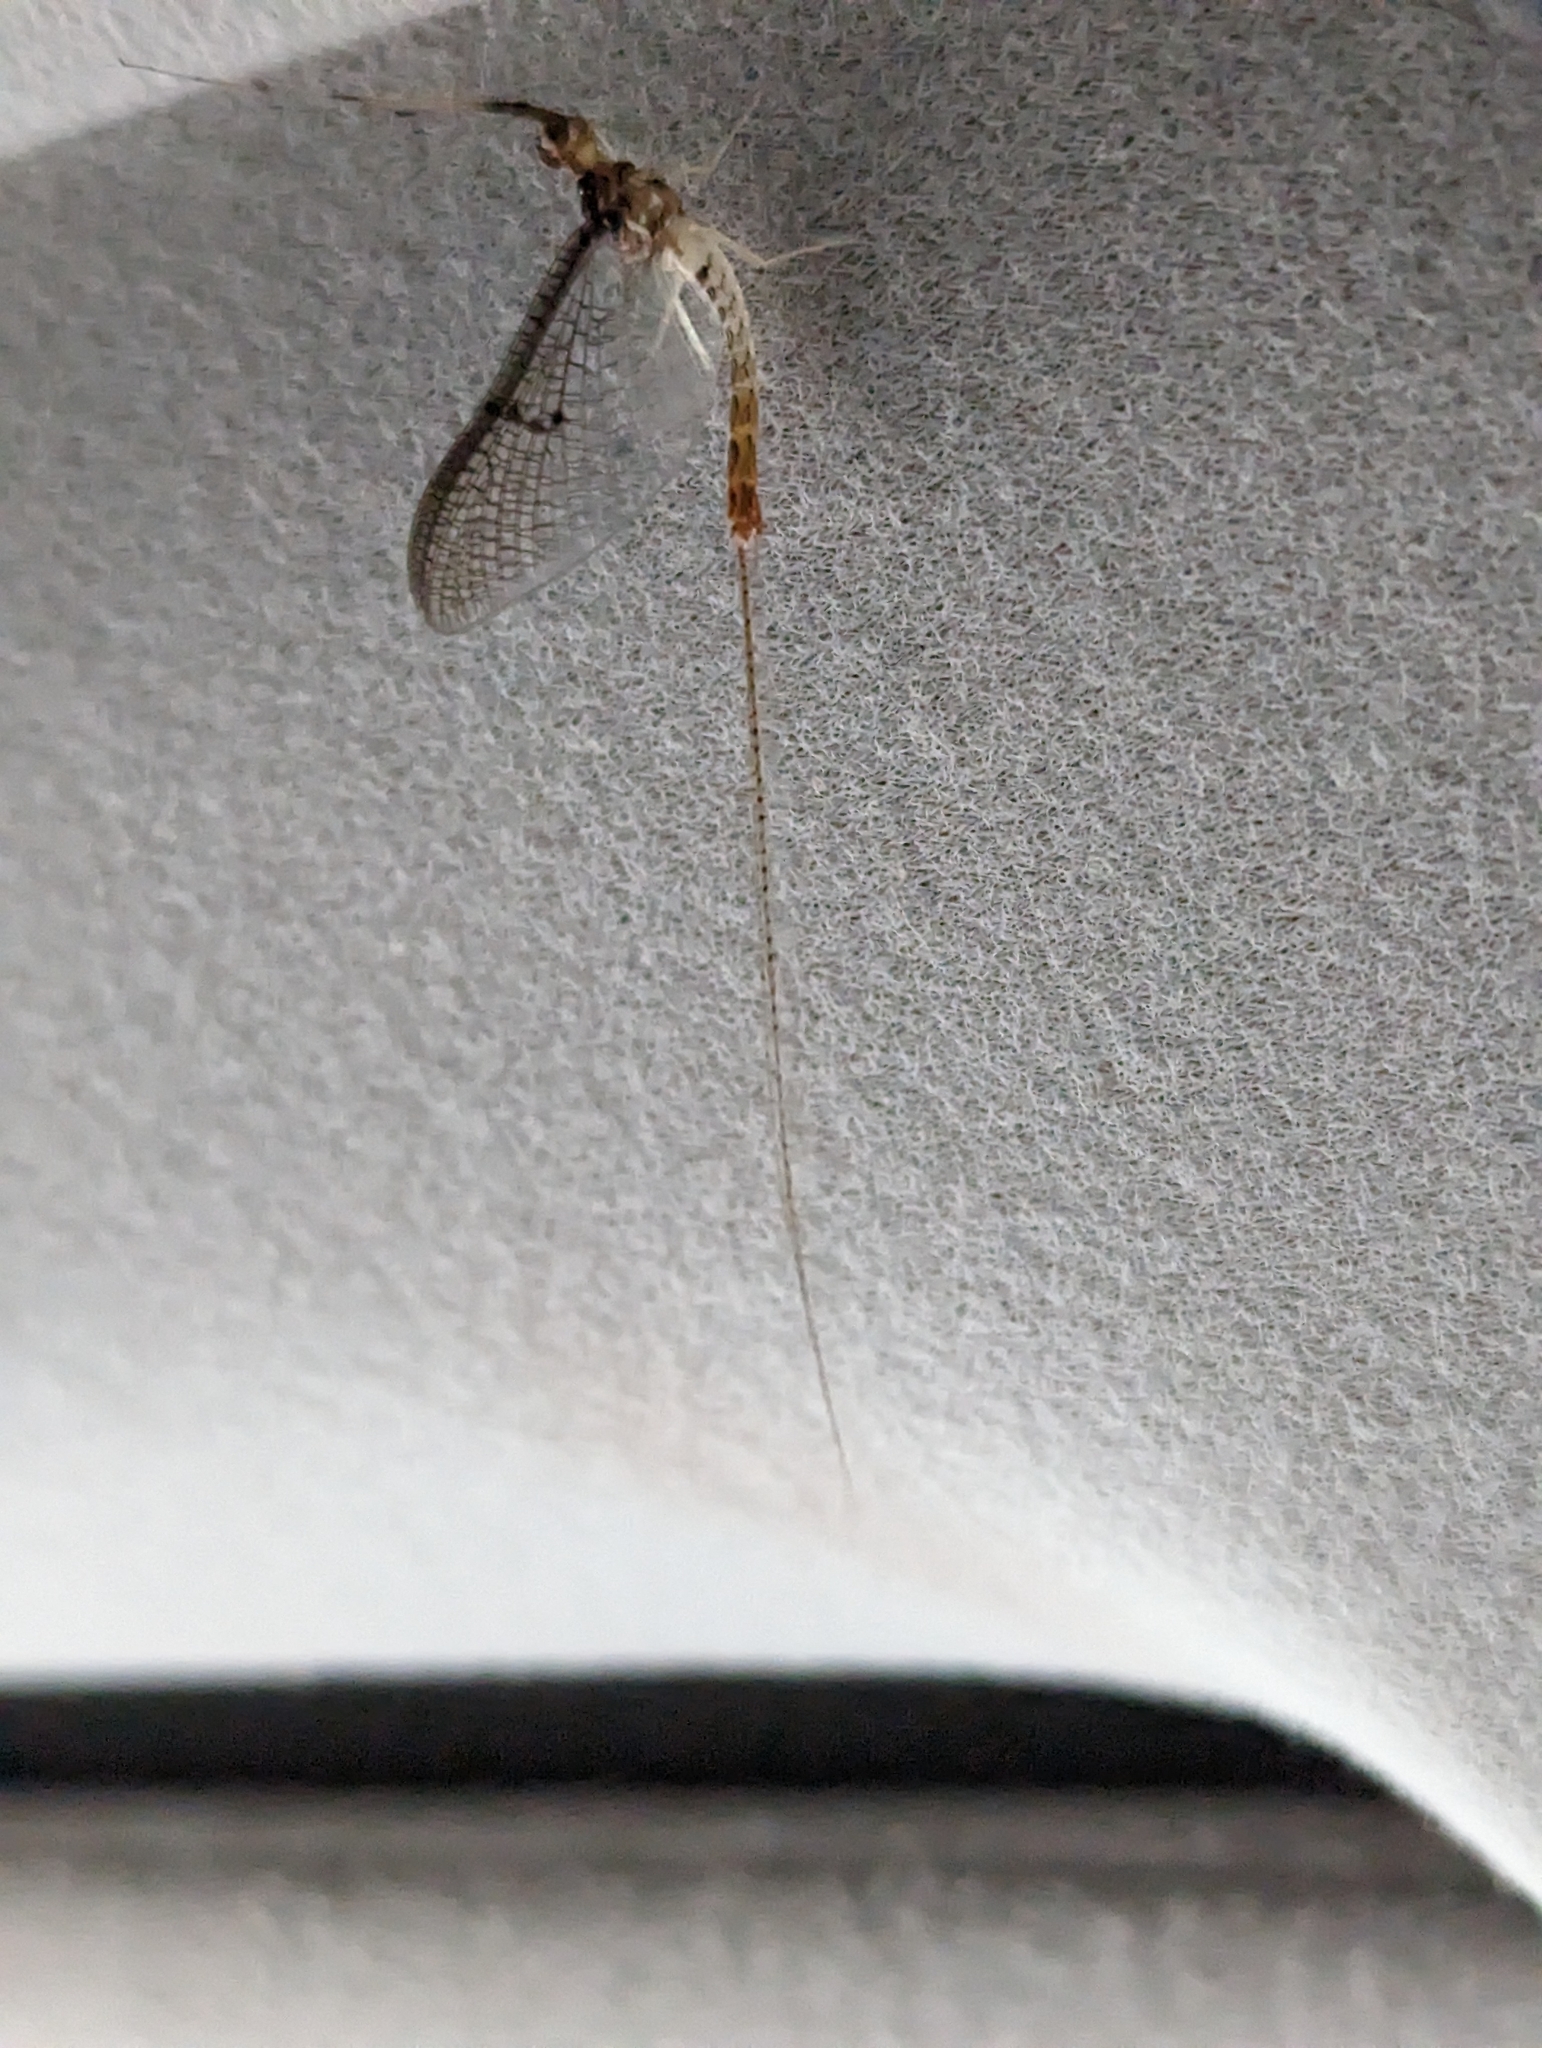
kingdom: Animalia
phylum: Arthropoda
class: Insecta
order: Ephemeroptera
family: Ephemeridae
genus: Ephemera
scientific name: Ephemera blanda
